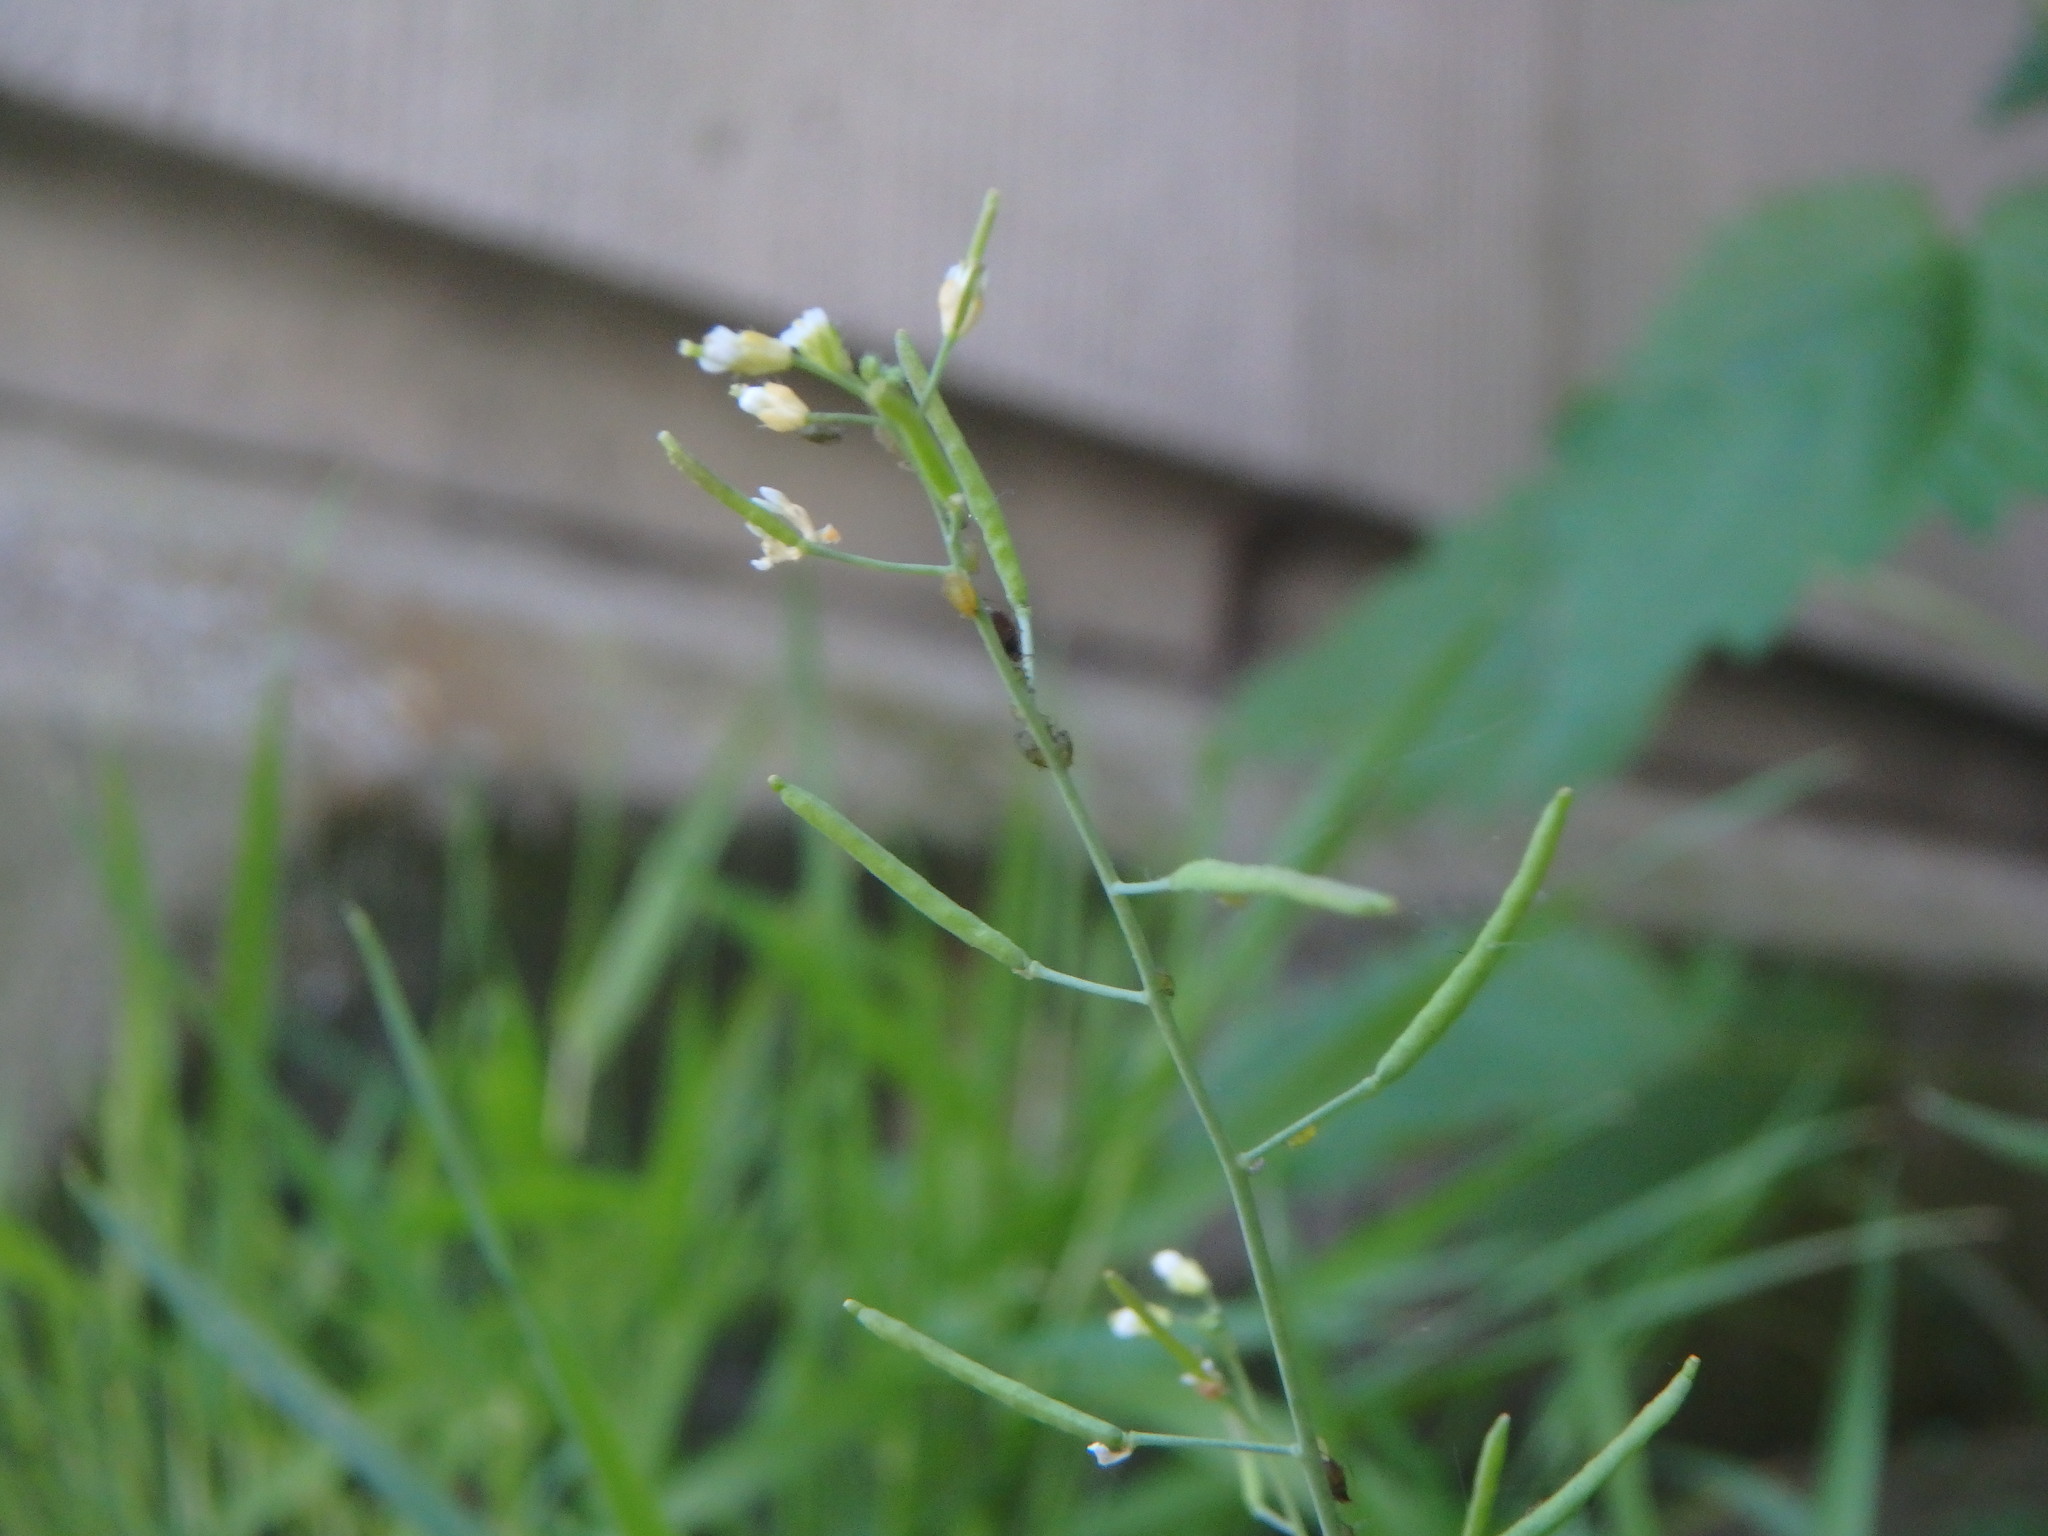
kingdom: Plantae
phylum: Tracheophyta
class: Magnoliopsida
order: Brassicales
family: Brassicaceae
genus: Arabidopsis
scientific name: Arabidopsis thaliana
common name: Thale cress
